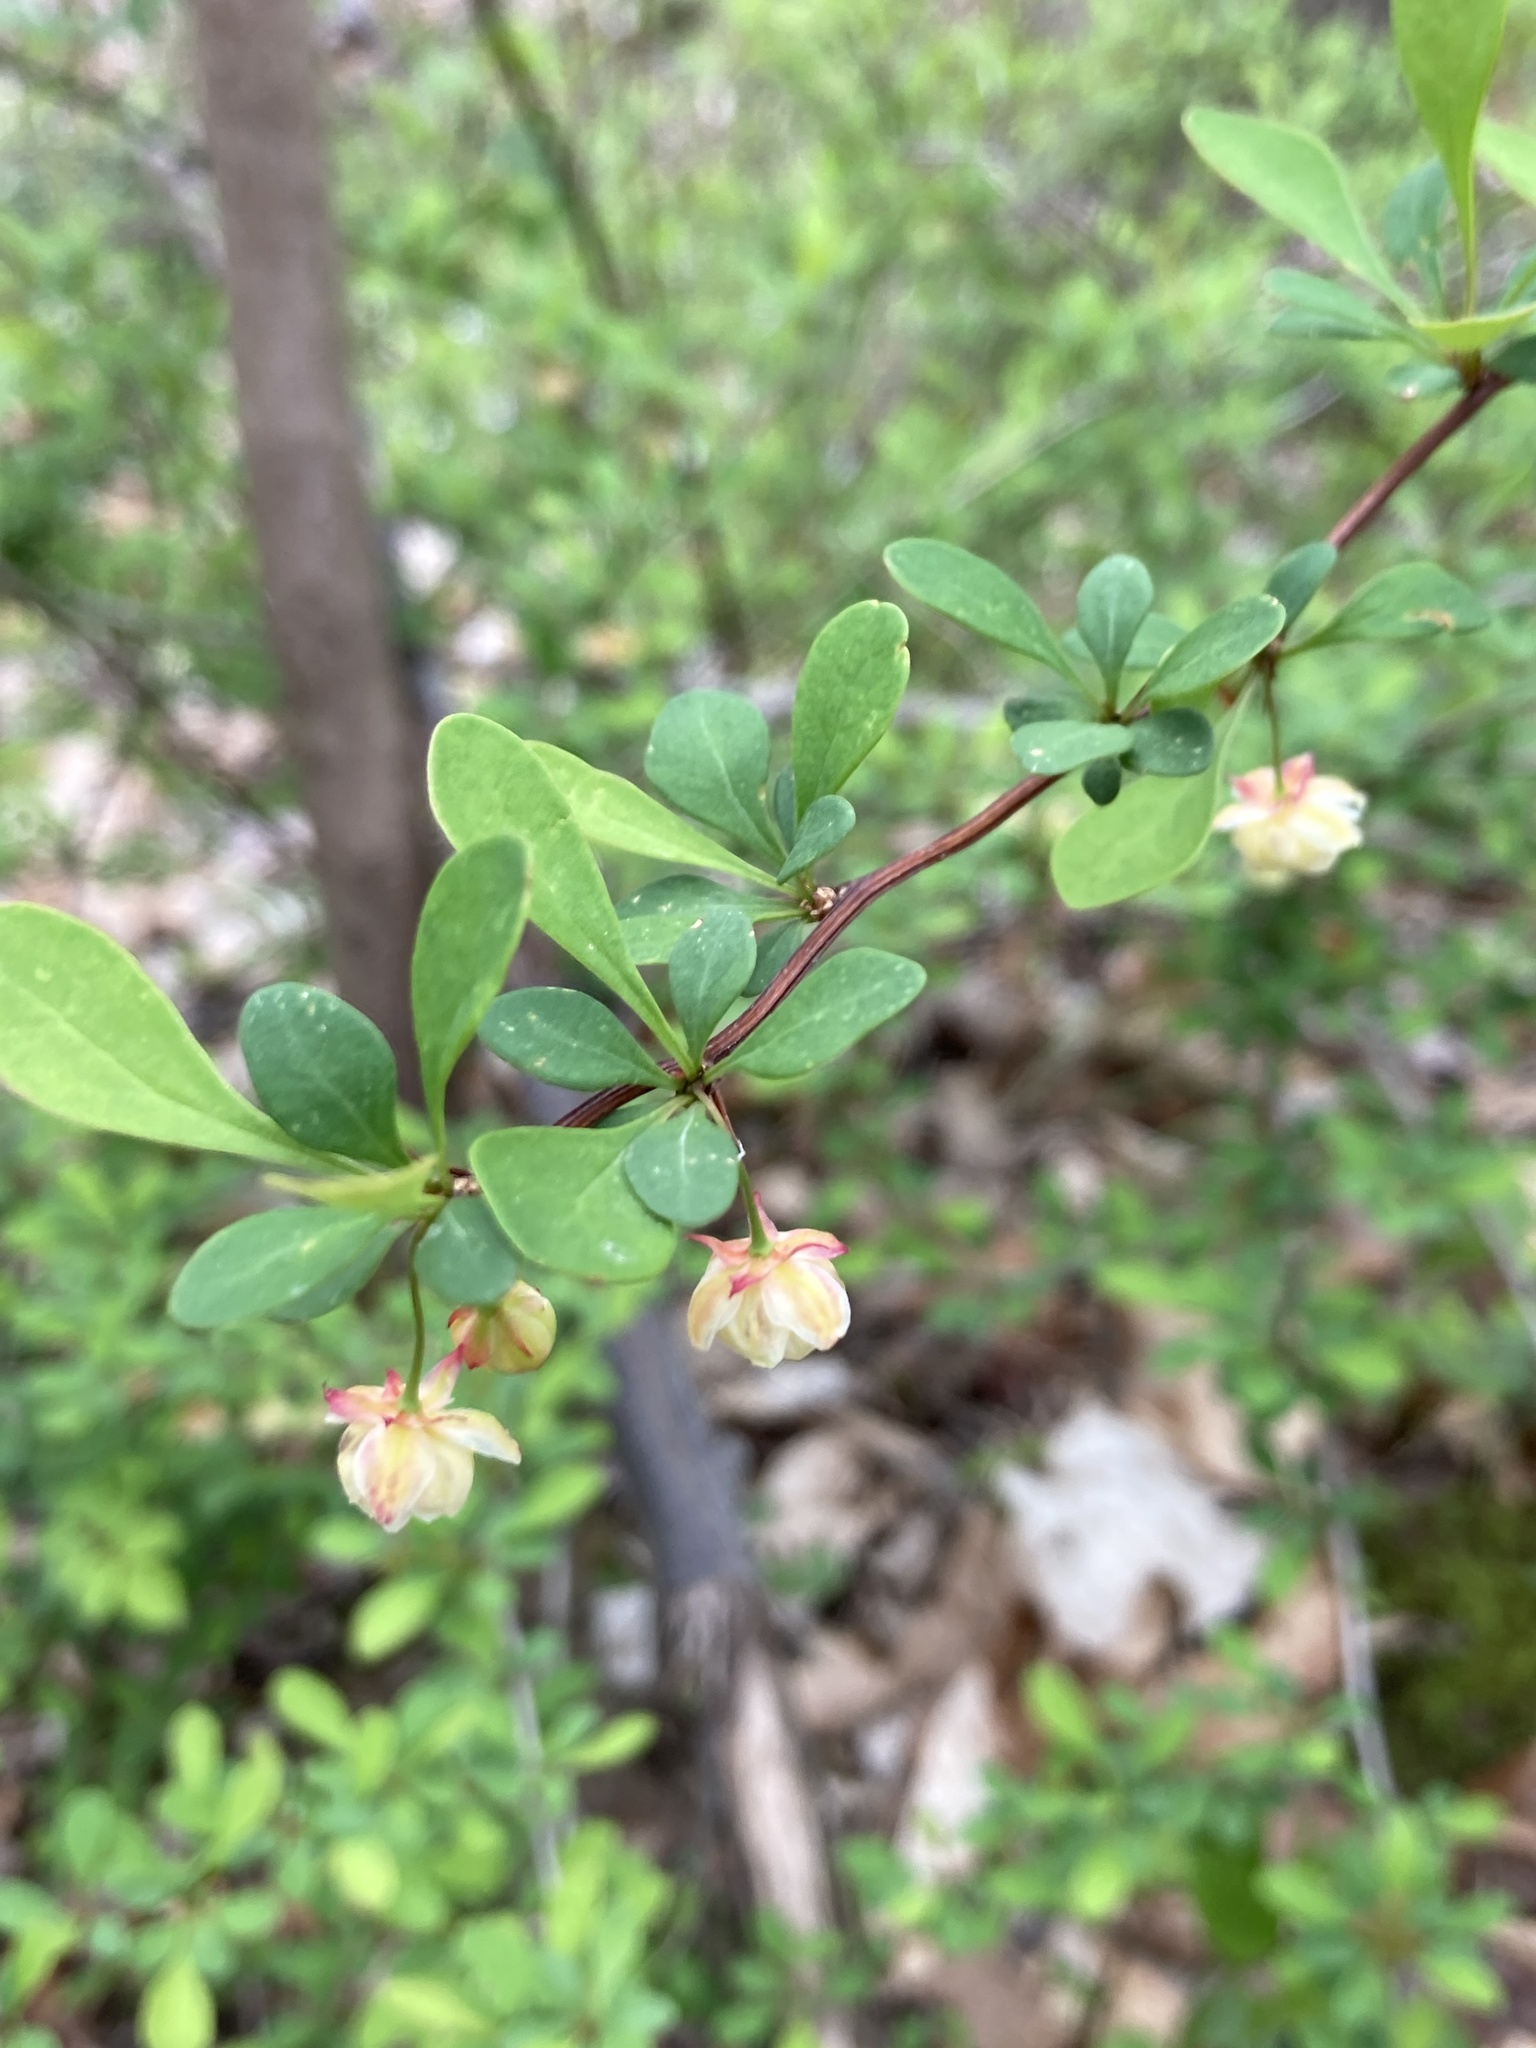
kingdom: Plantae
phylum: Tracheophyta
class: Magnoliopsida
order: Ranunculales
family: Berberidaceae
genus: Berberis
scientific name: Berberis thunbergii
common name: Japanese barberry
